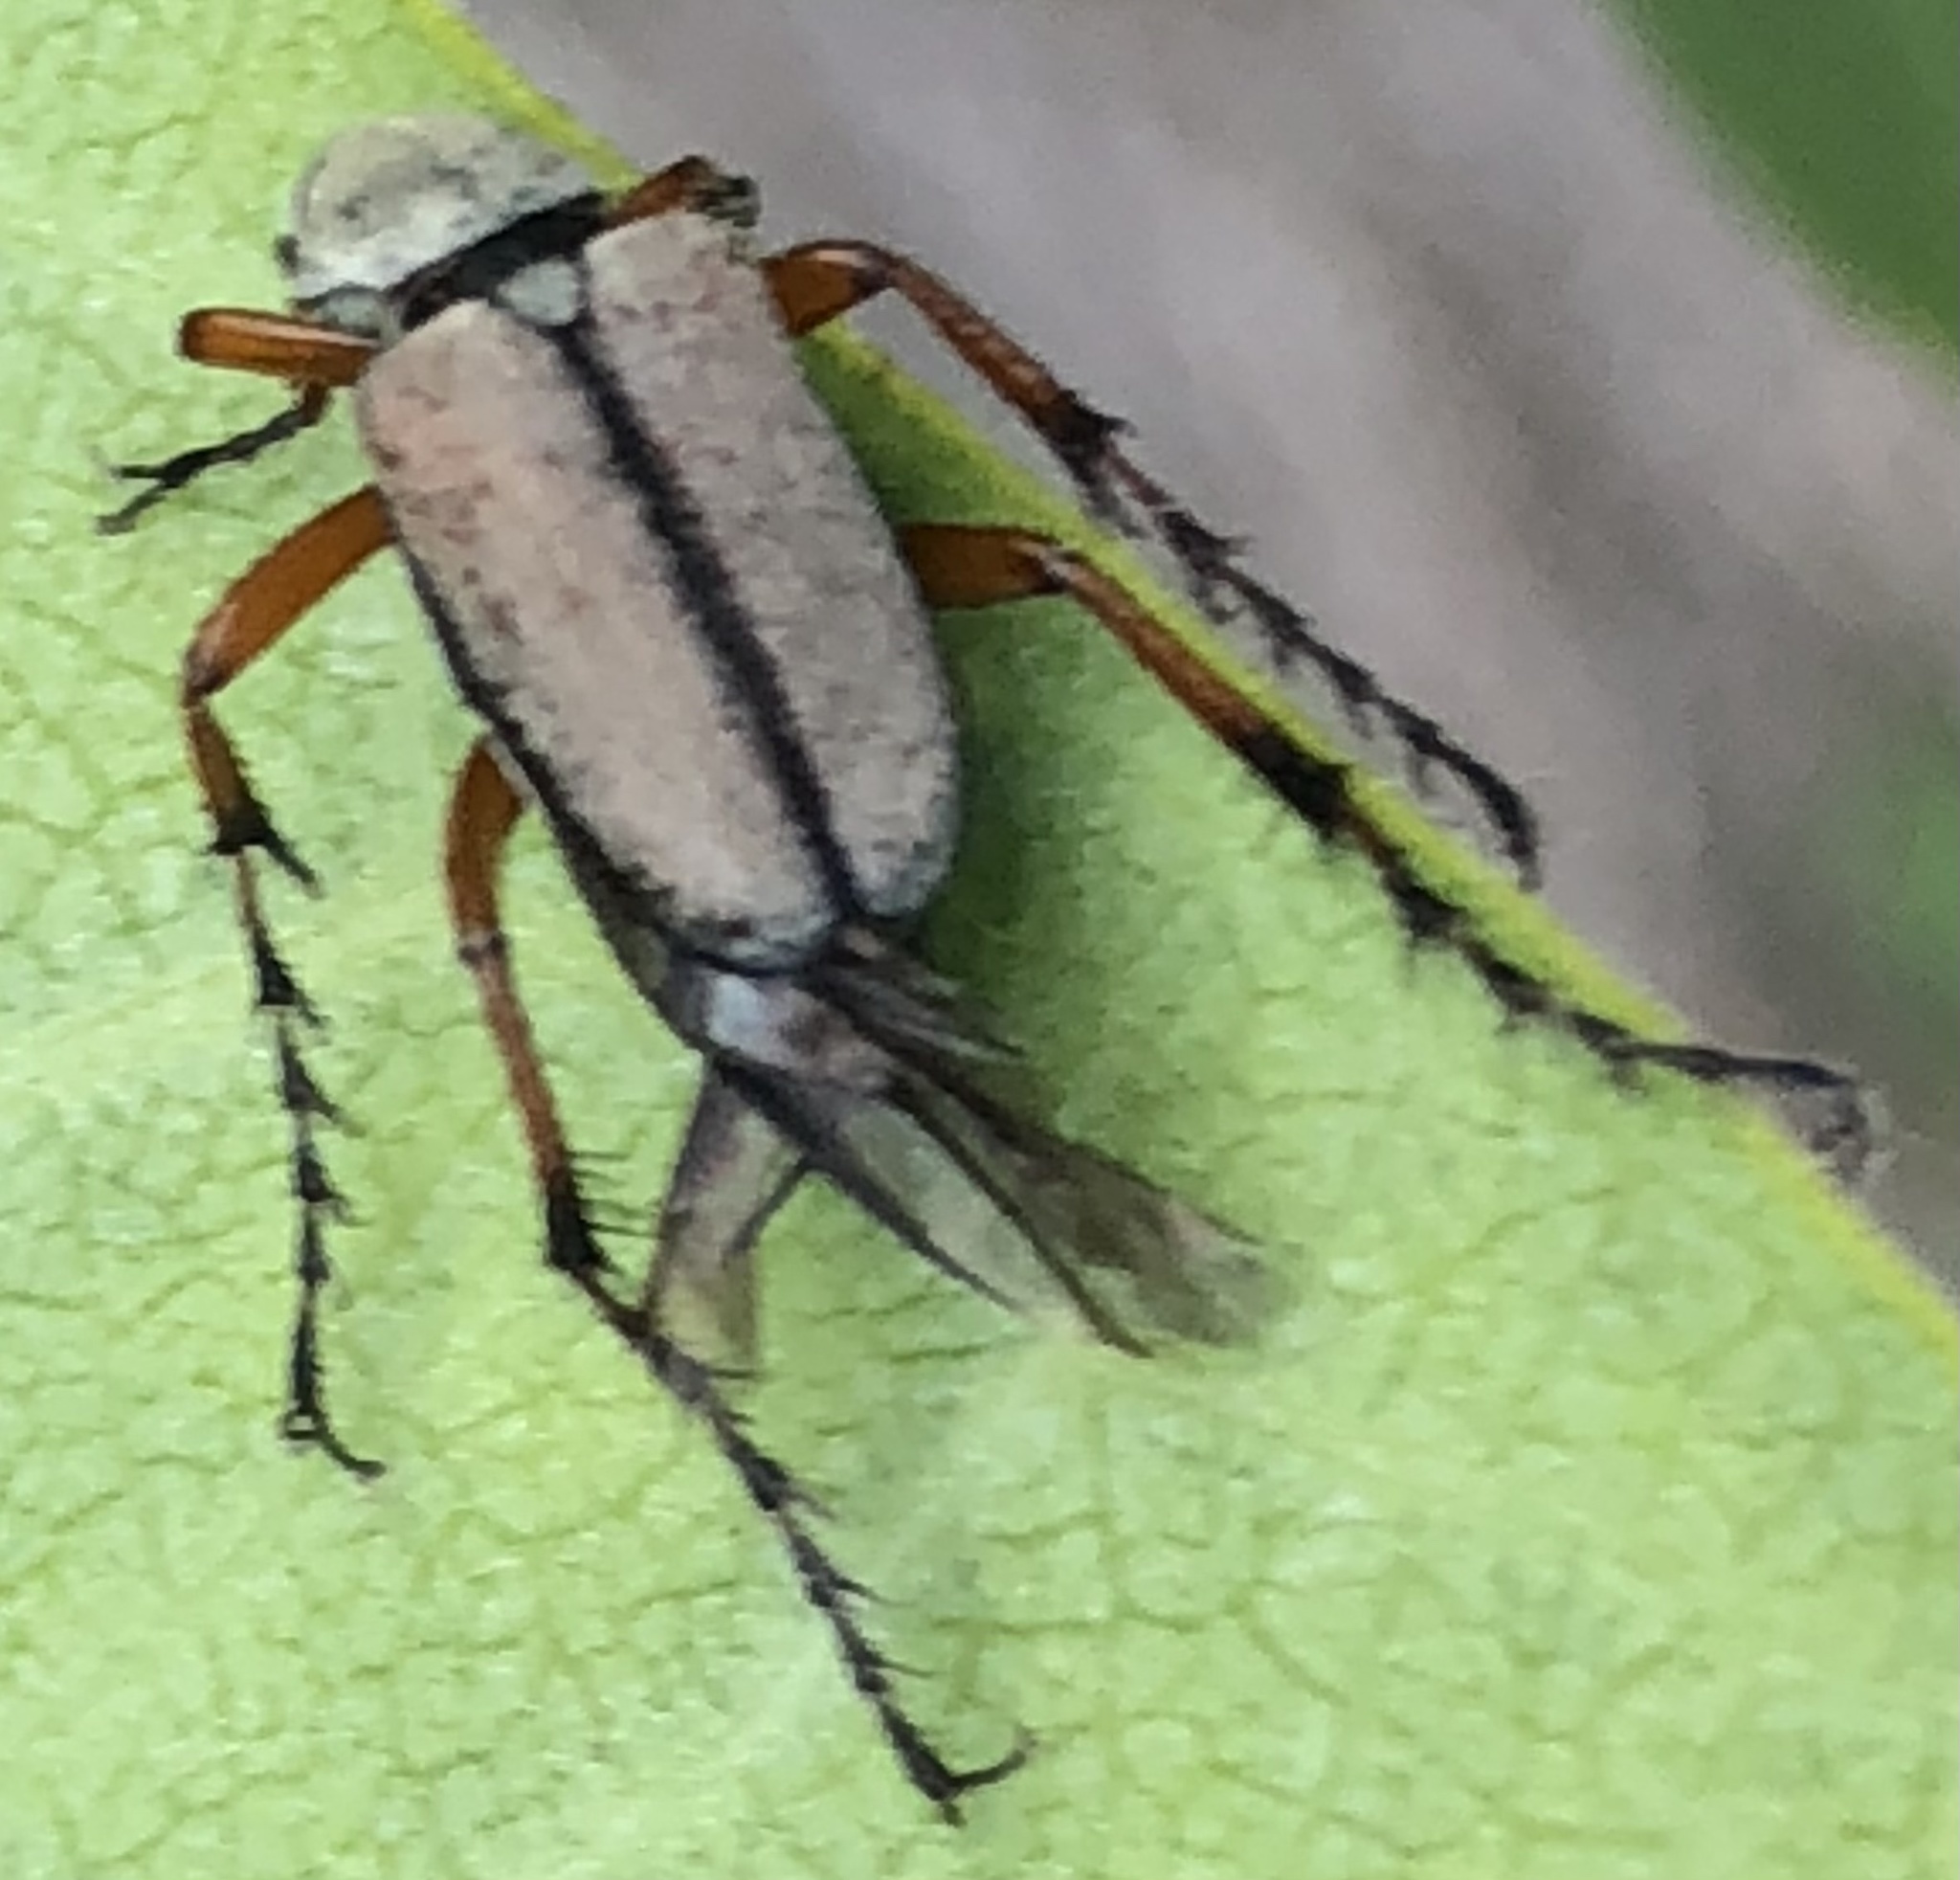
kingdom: Animalia
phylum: Arthropoda
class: Insecta
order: Coleoptera
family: Scarabaeidae
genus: Macrodactylus
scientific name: Macrodactylus subspinosus
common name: American rose chafer
